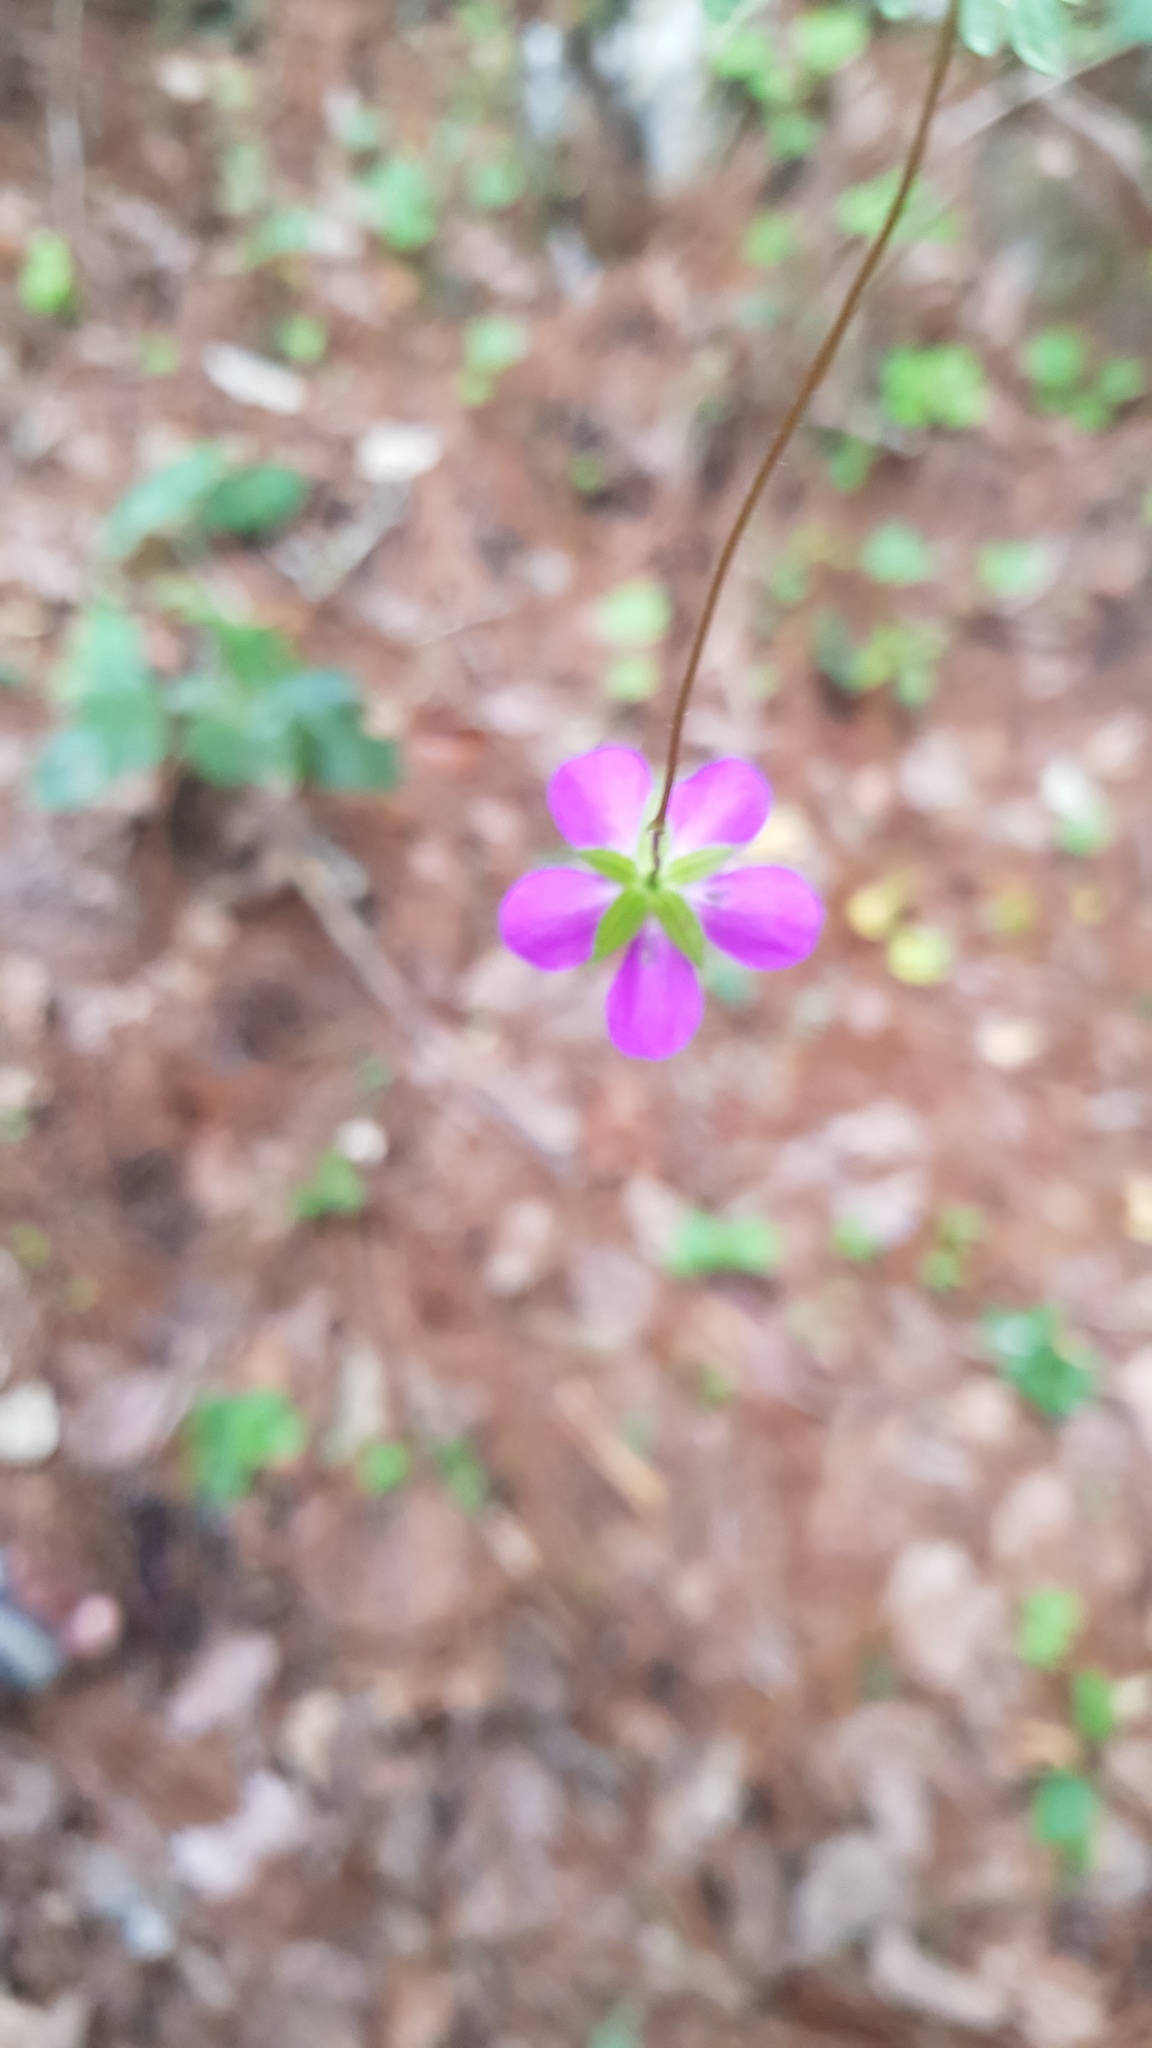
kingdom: Plantae
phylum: Tracheophyta
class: Magnoliopsida
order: Geraniales
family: Geraniaceae
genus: Geranium
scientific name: Geranium potentillifolium
